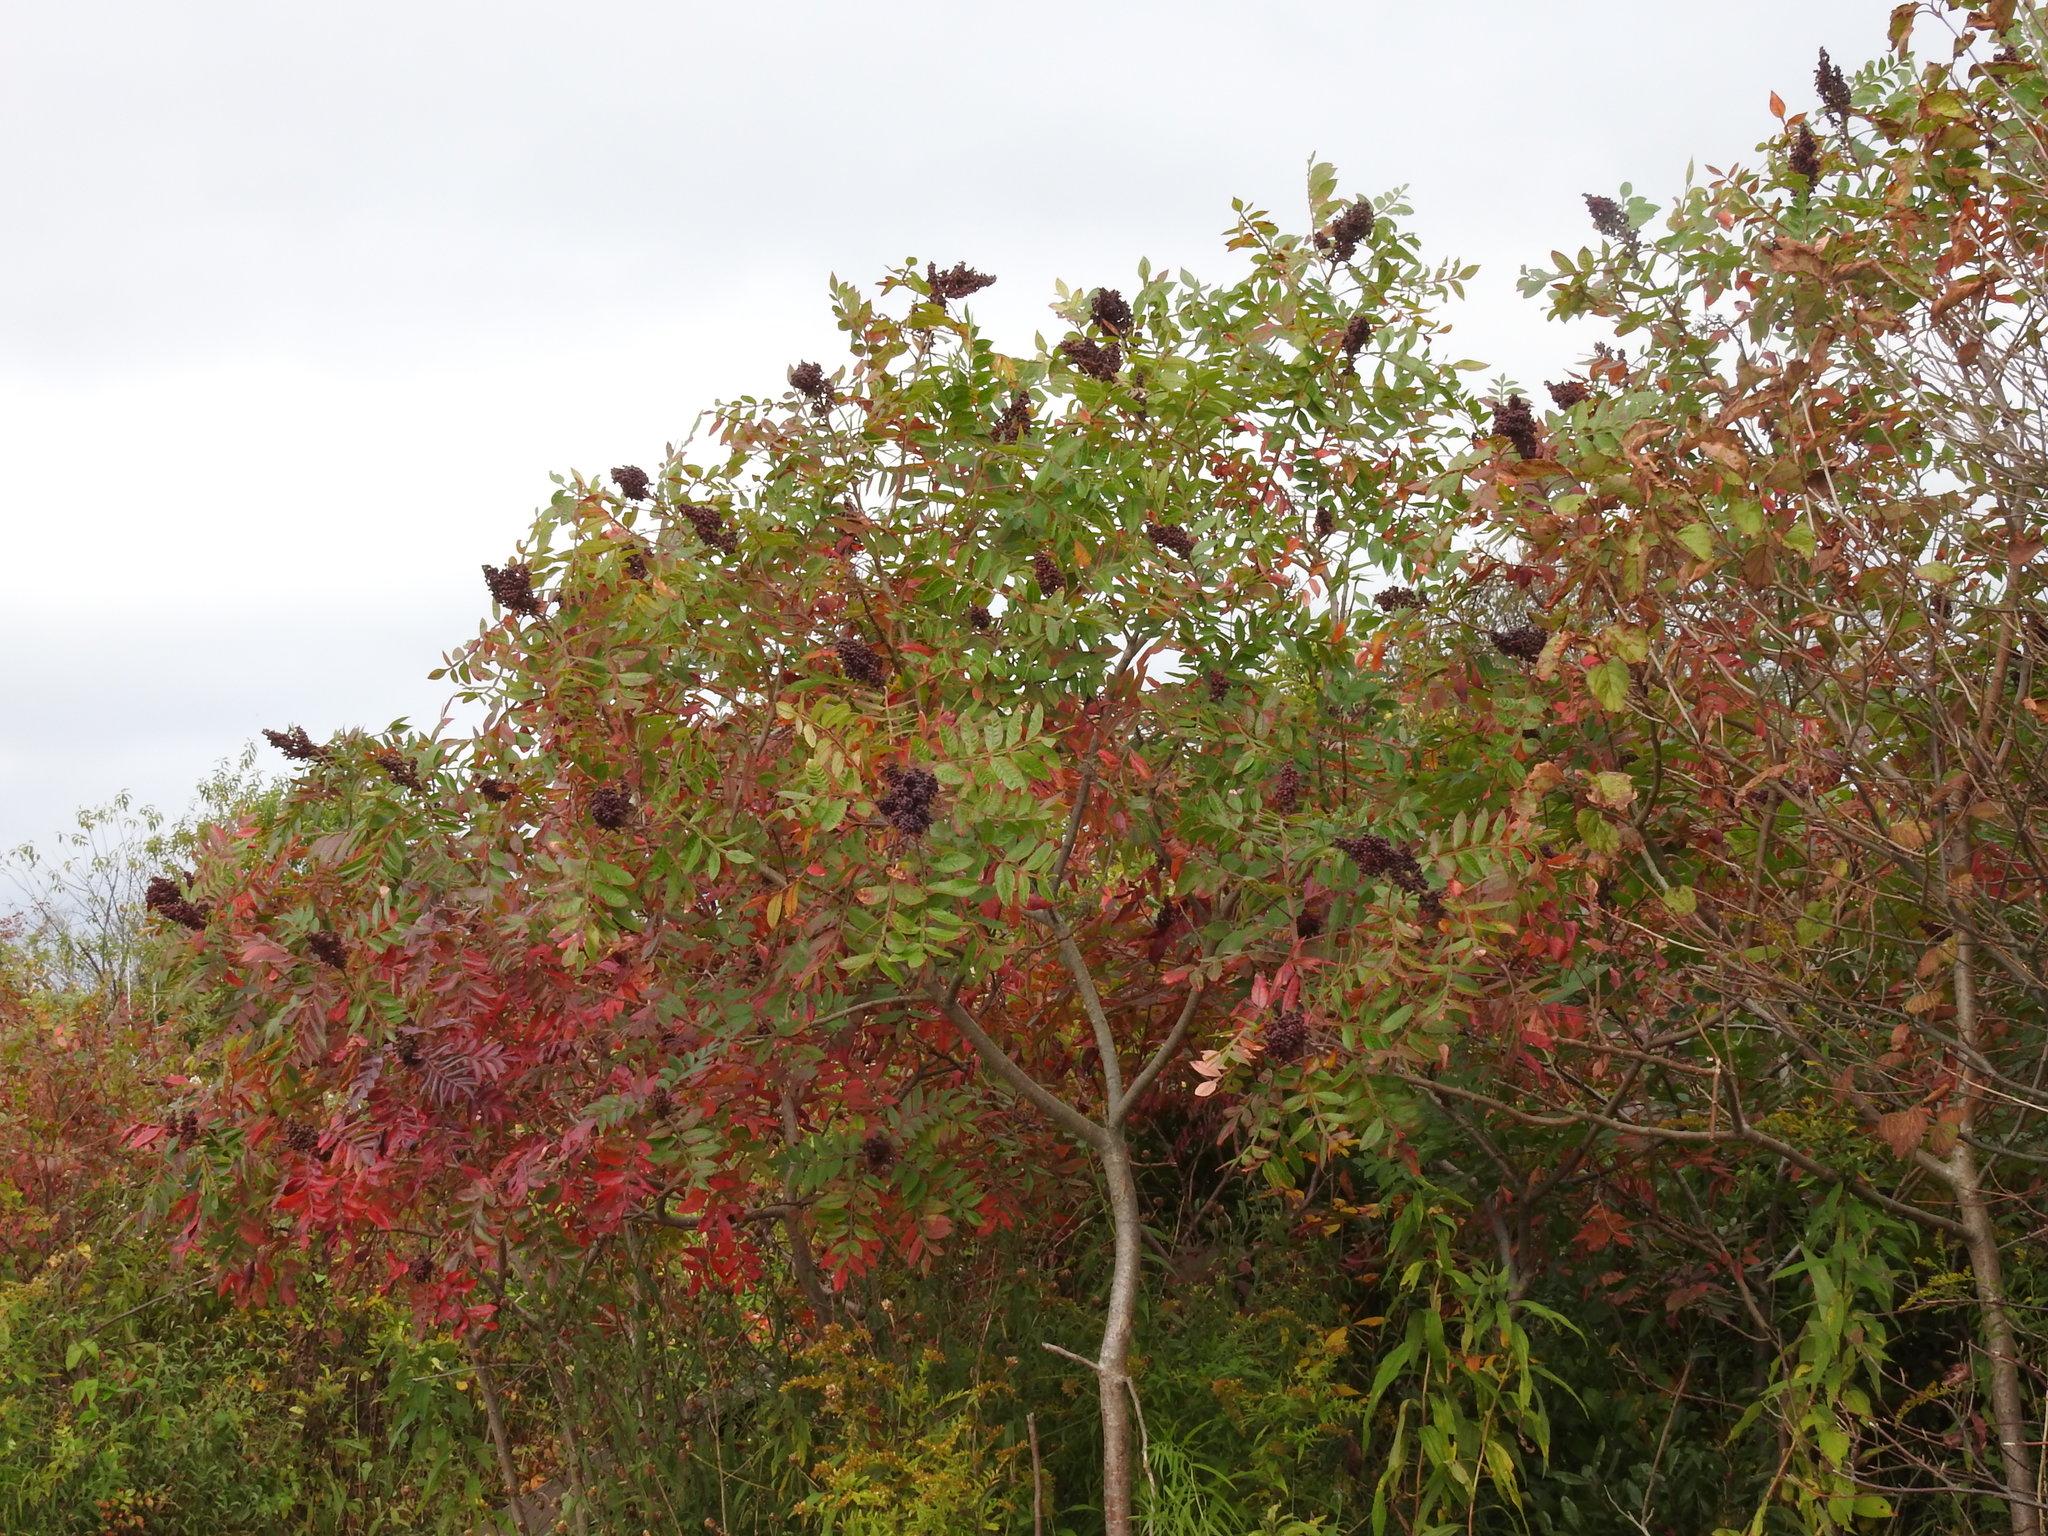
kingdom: Plantae
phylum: Tracheophyta
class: Magnoliopsida
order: Sapindales
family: Anacardiaceae
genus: Rhus
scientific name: Rhus copallina
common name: Shining sumac
